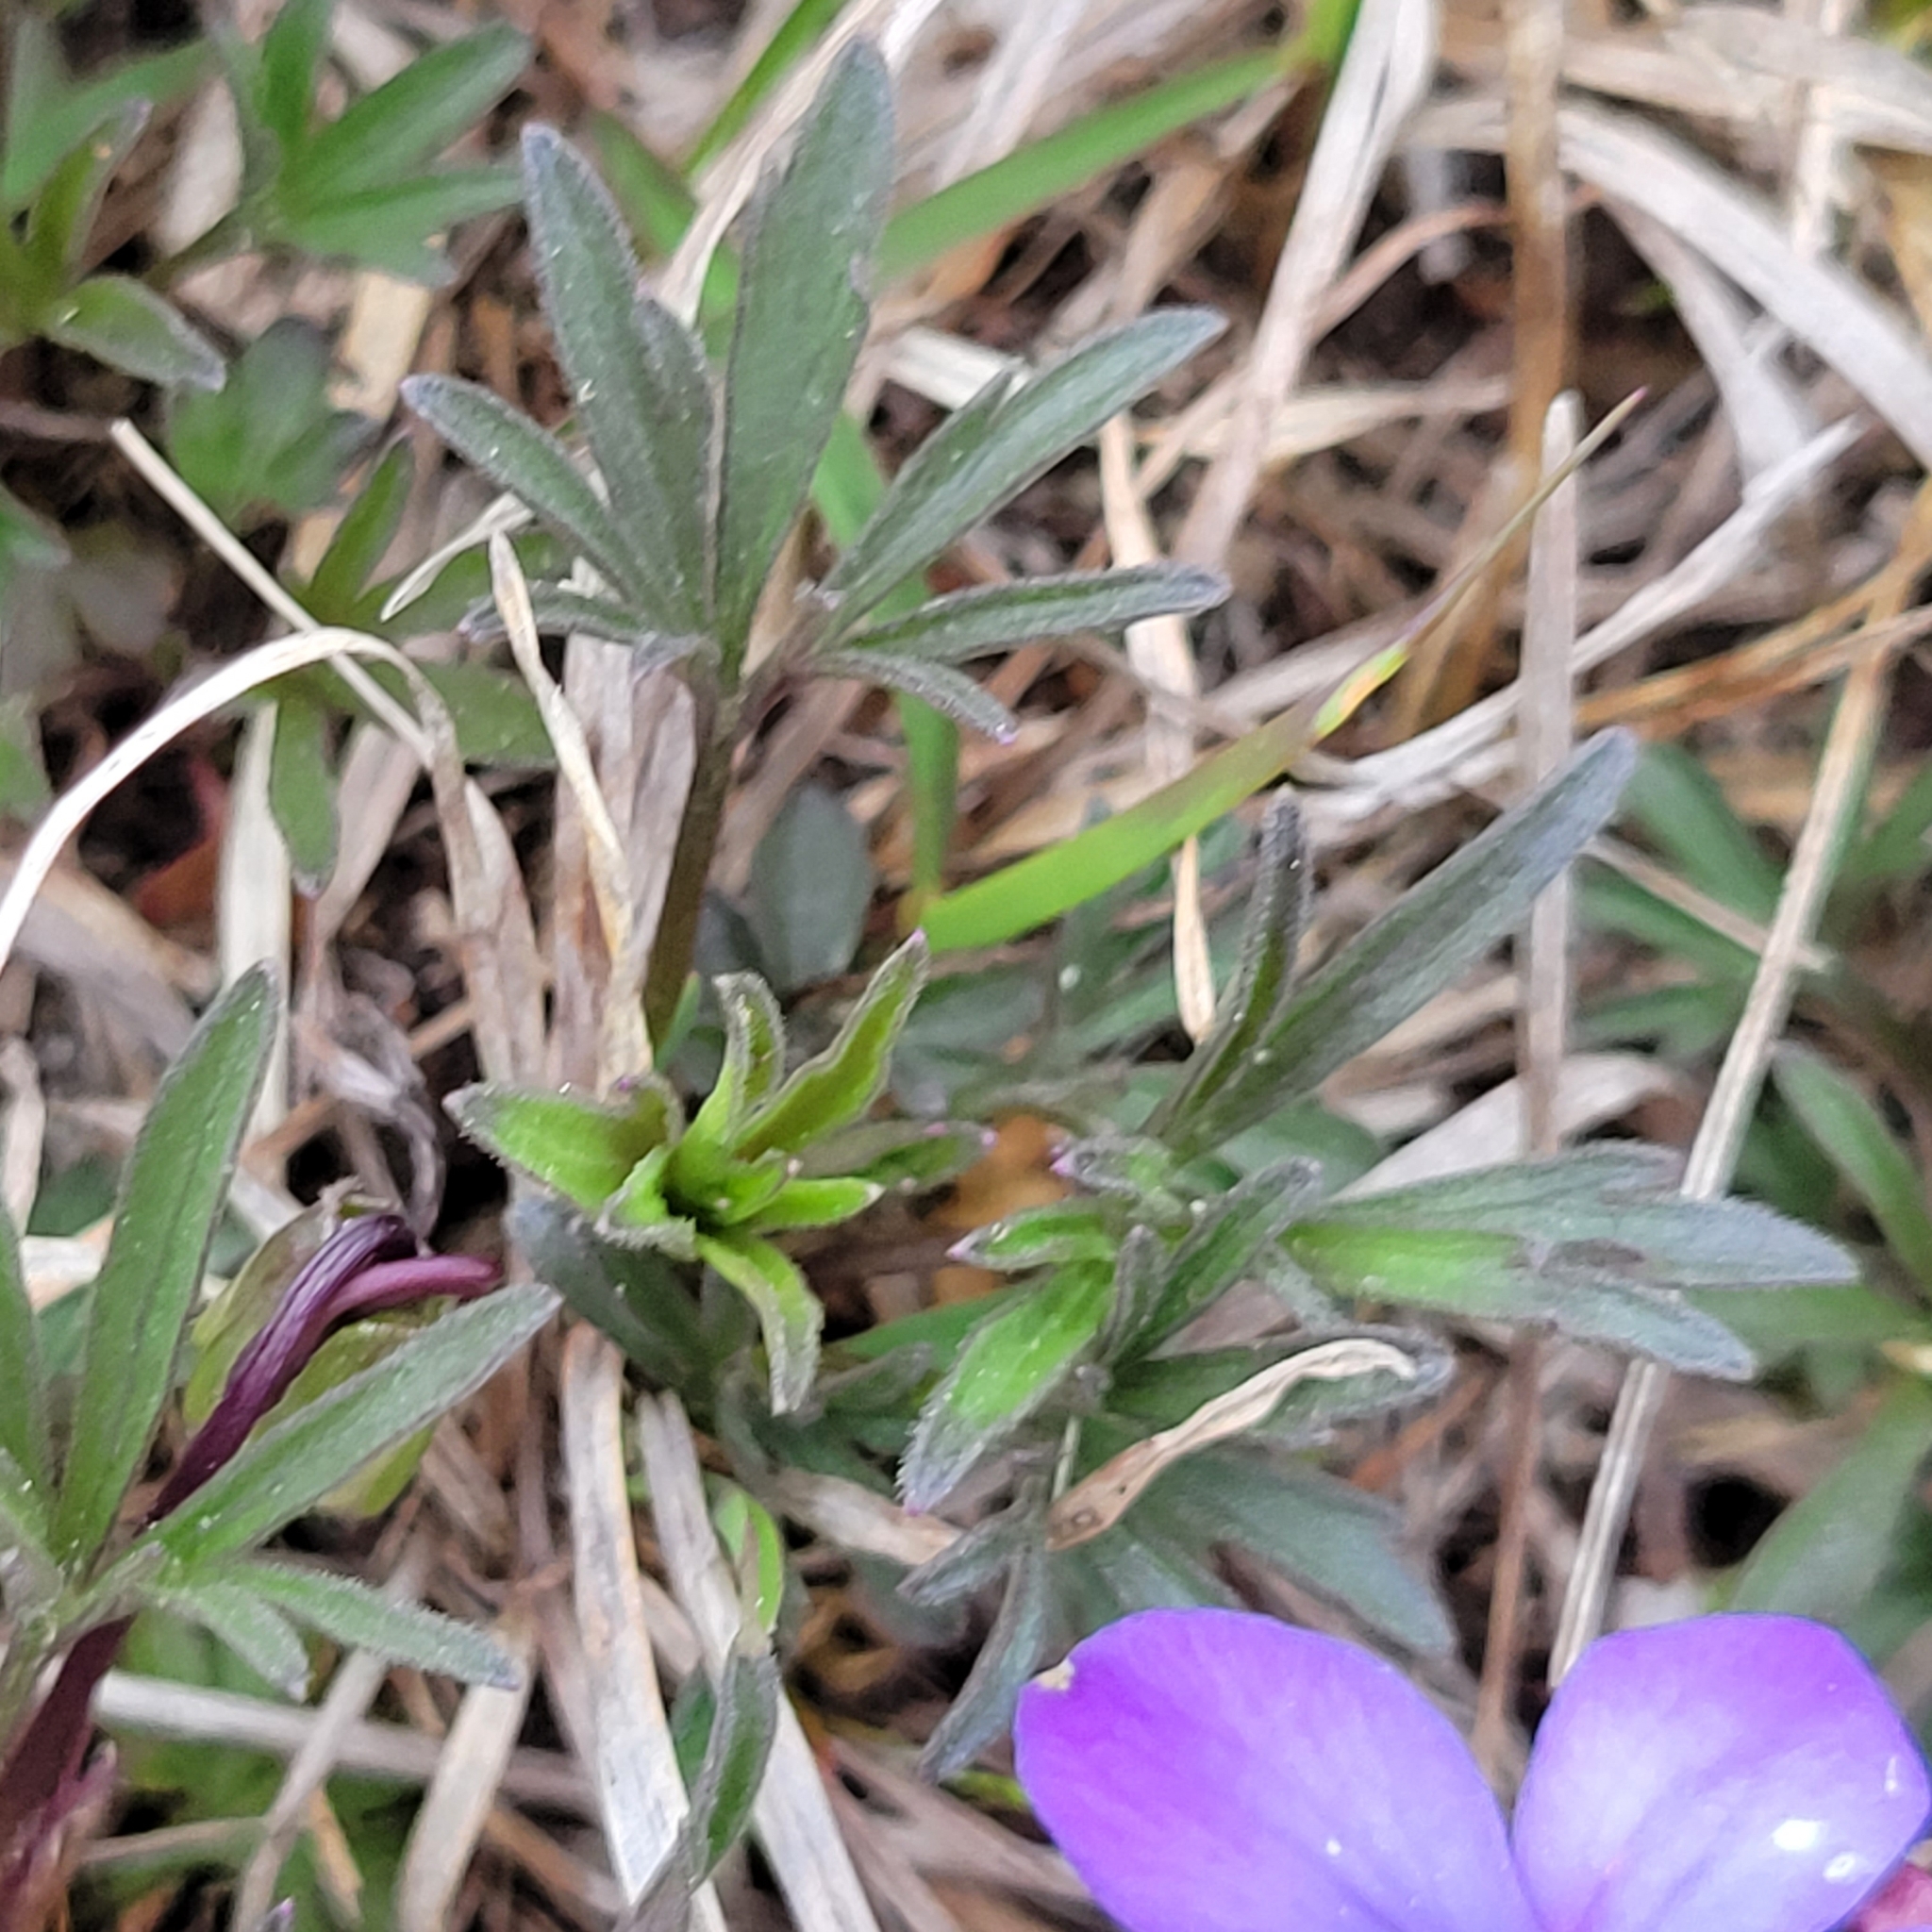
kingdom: Plantae
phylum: Tracheophyta
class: Magnoliopsida
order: Malpighiales
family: Violaceae
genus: Viola
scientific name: Viola pedata
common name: Pansy violet
